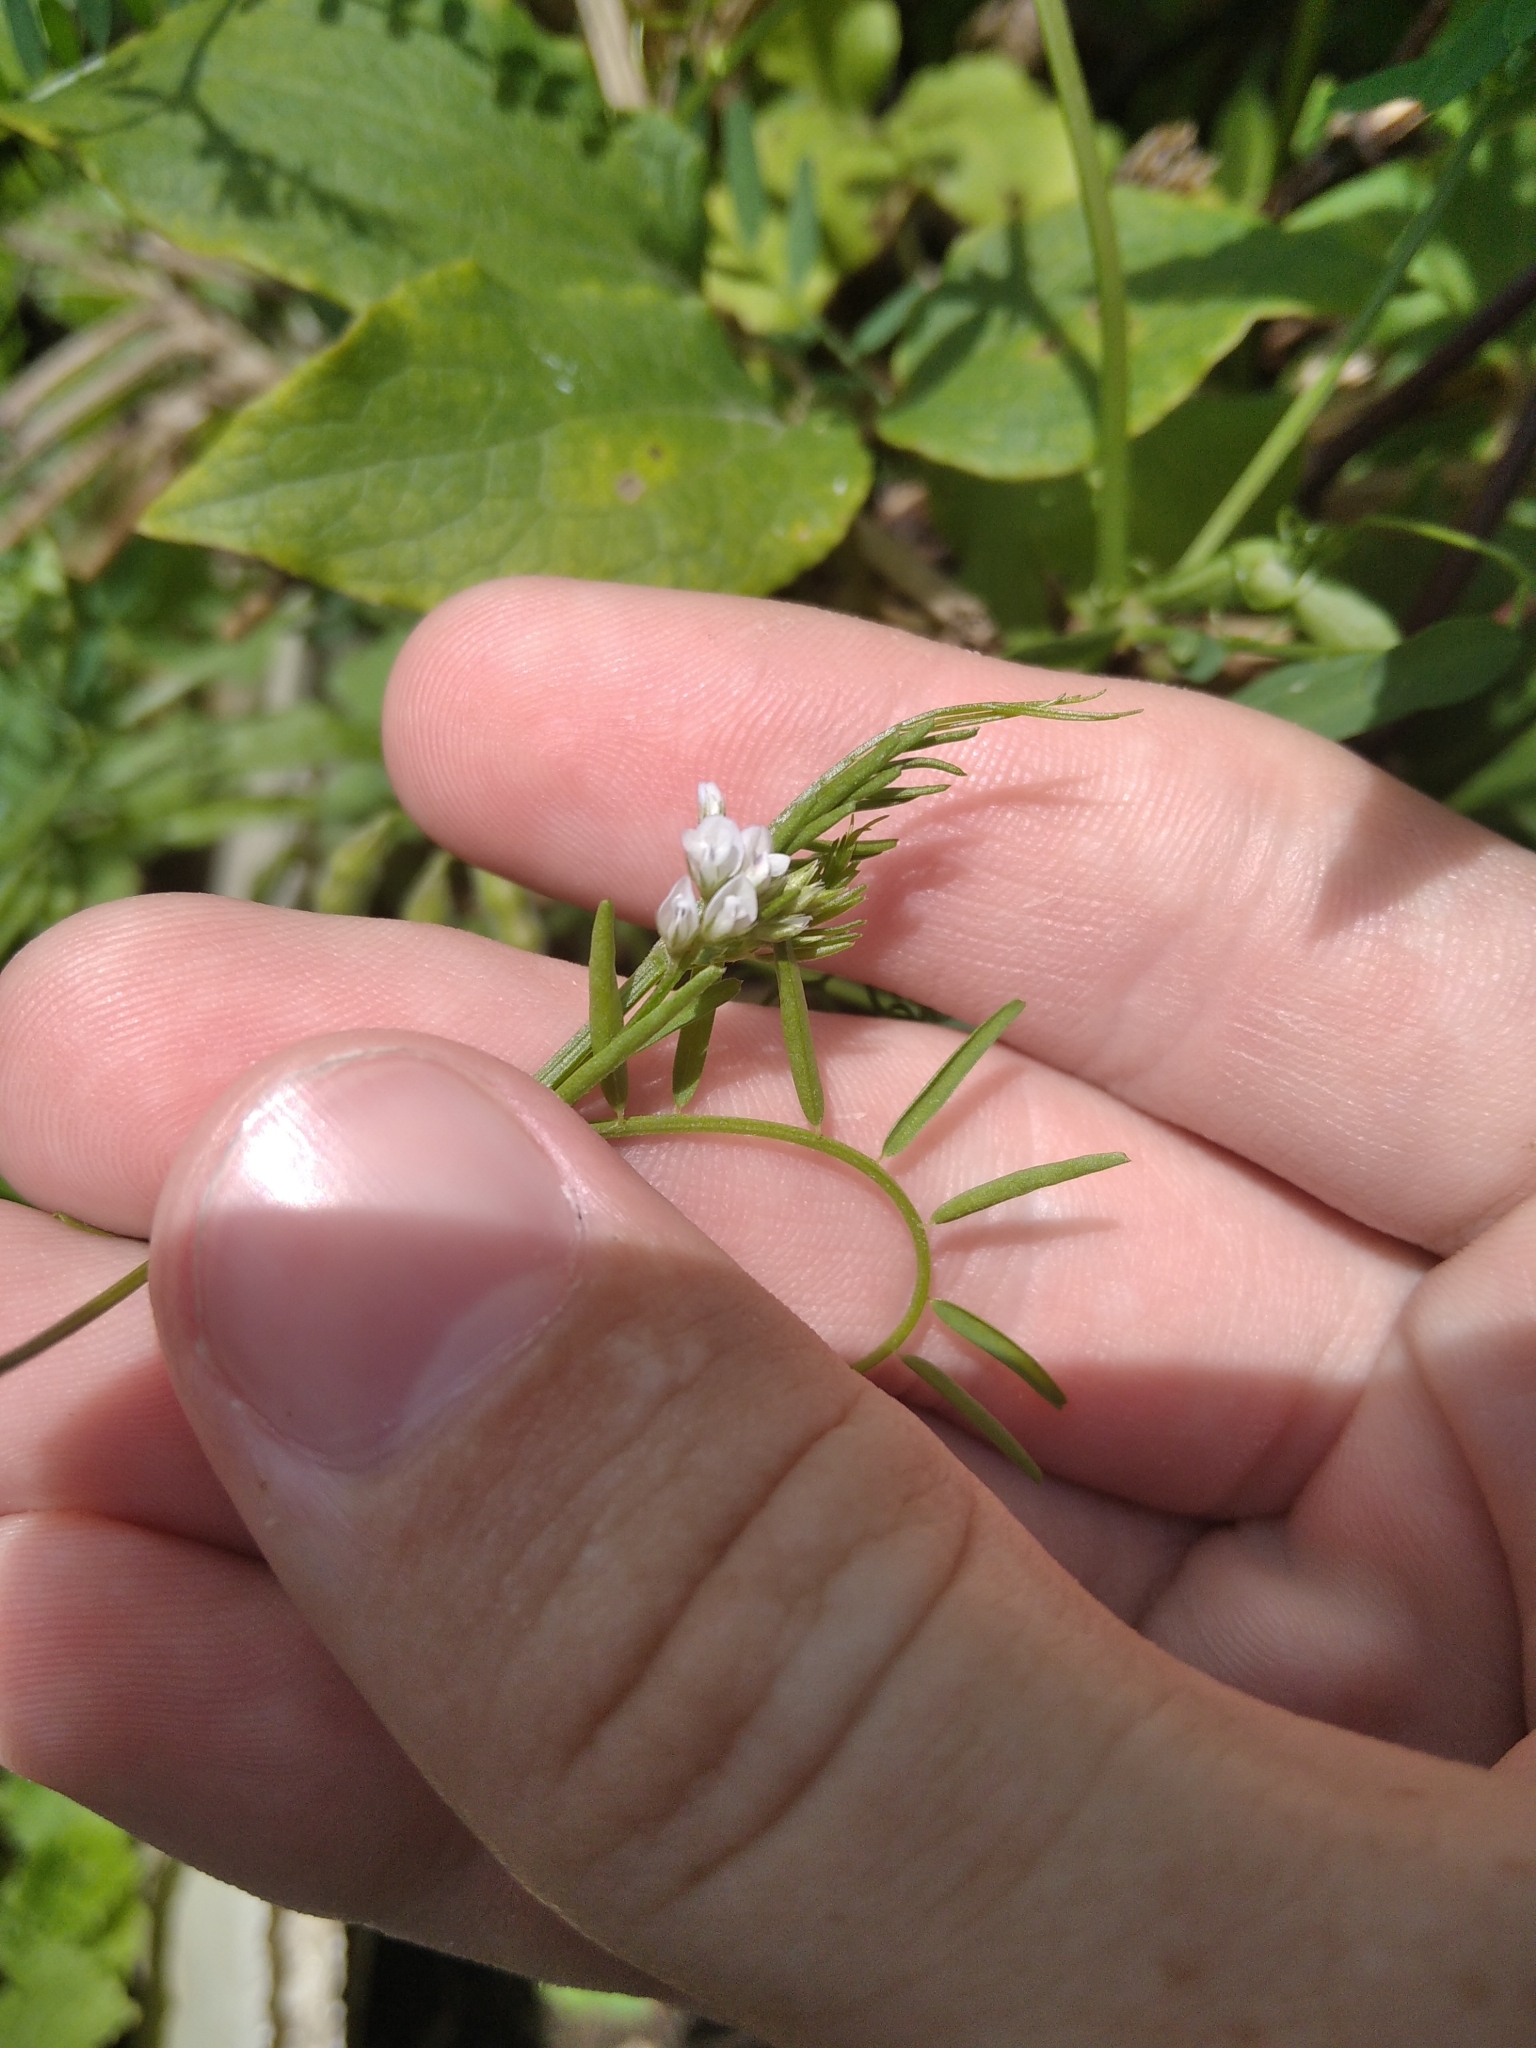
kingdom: Plantae
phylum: Tracheophyta
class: Magnoliopsida
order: Fabales
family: Fabaceae
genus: Vicia
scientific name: Vicia hirsuta
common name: Tiny vetch
